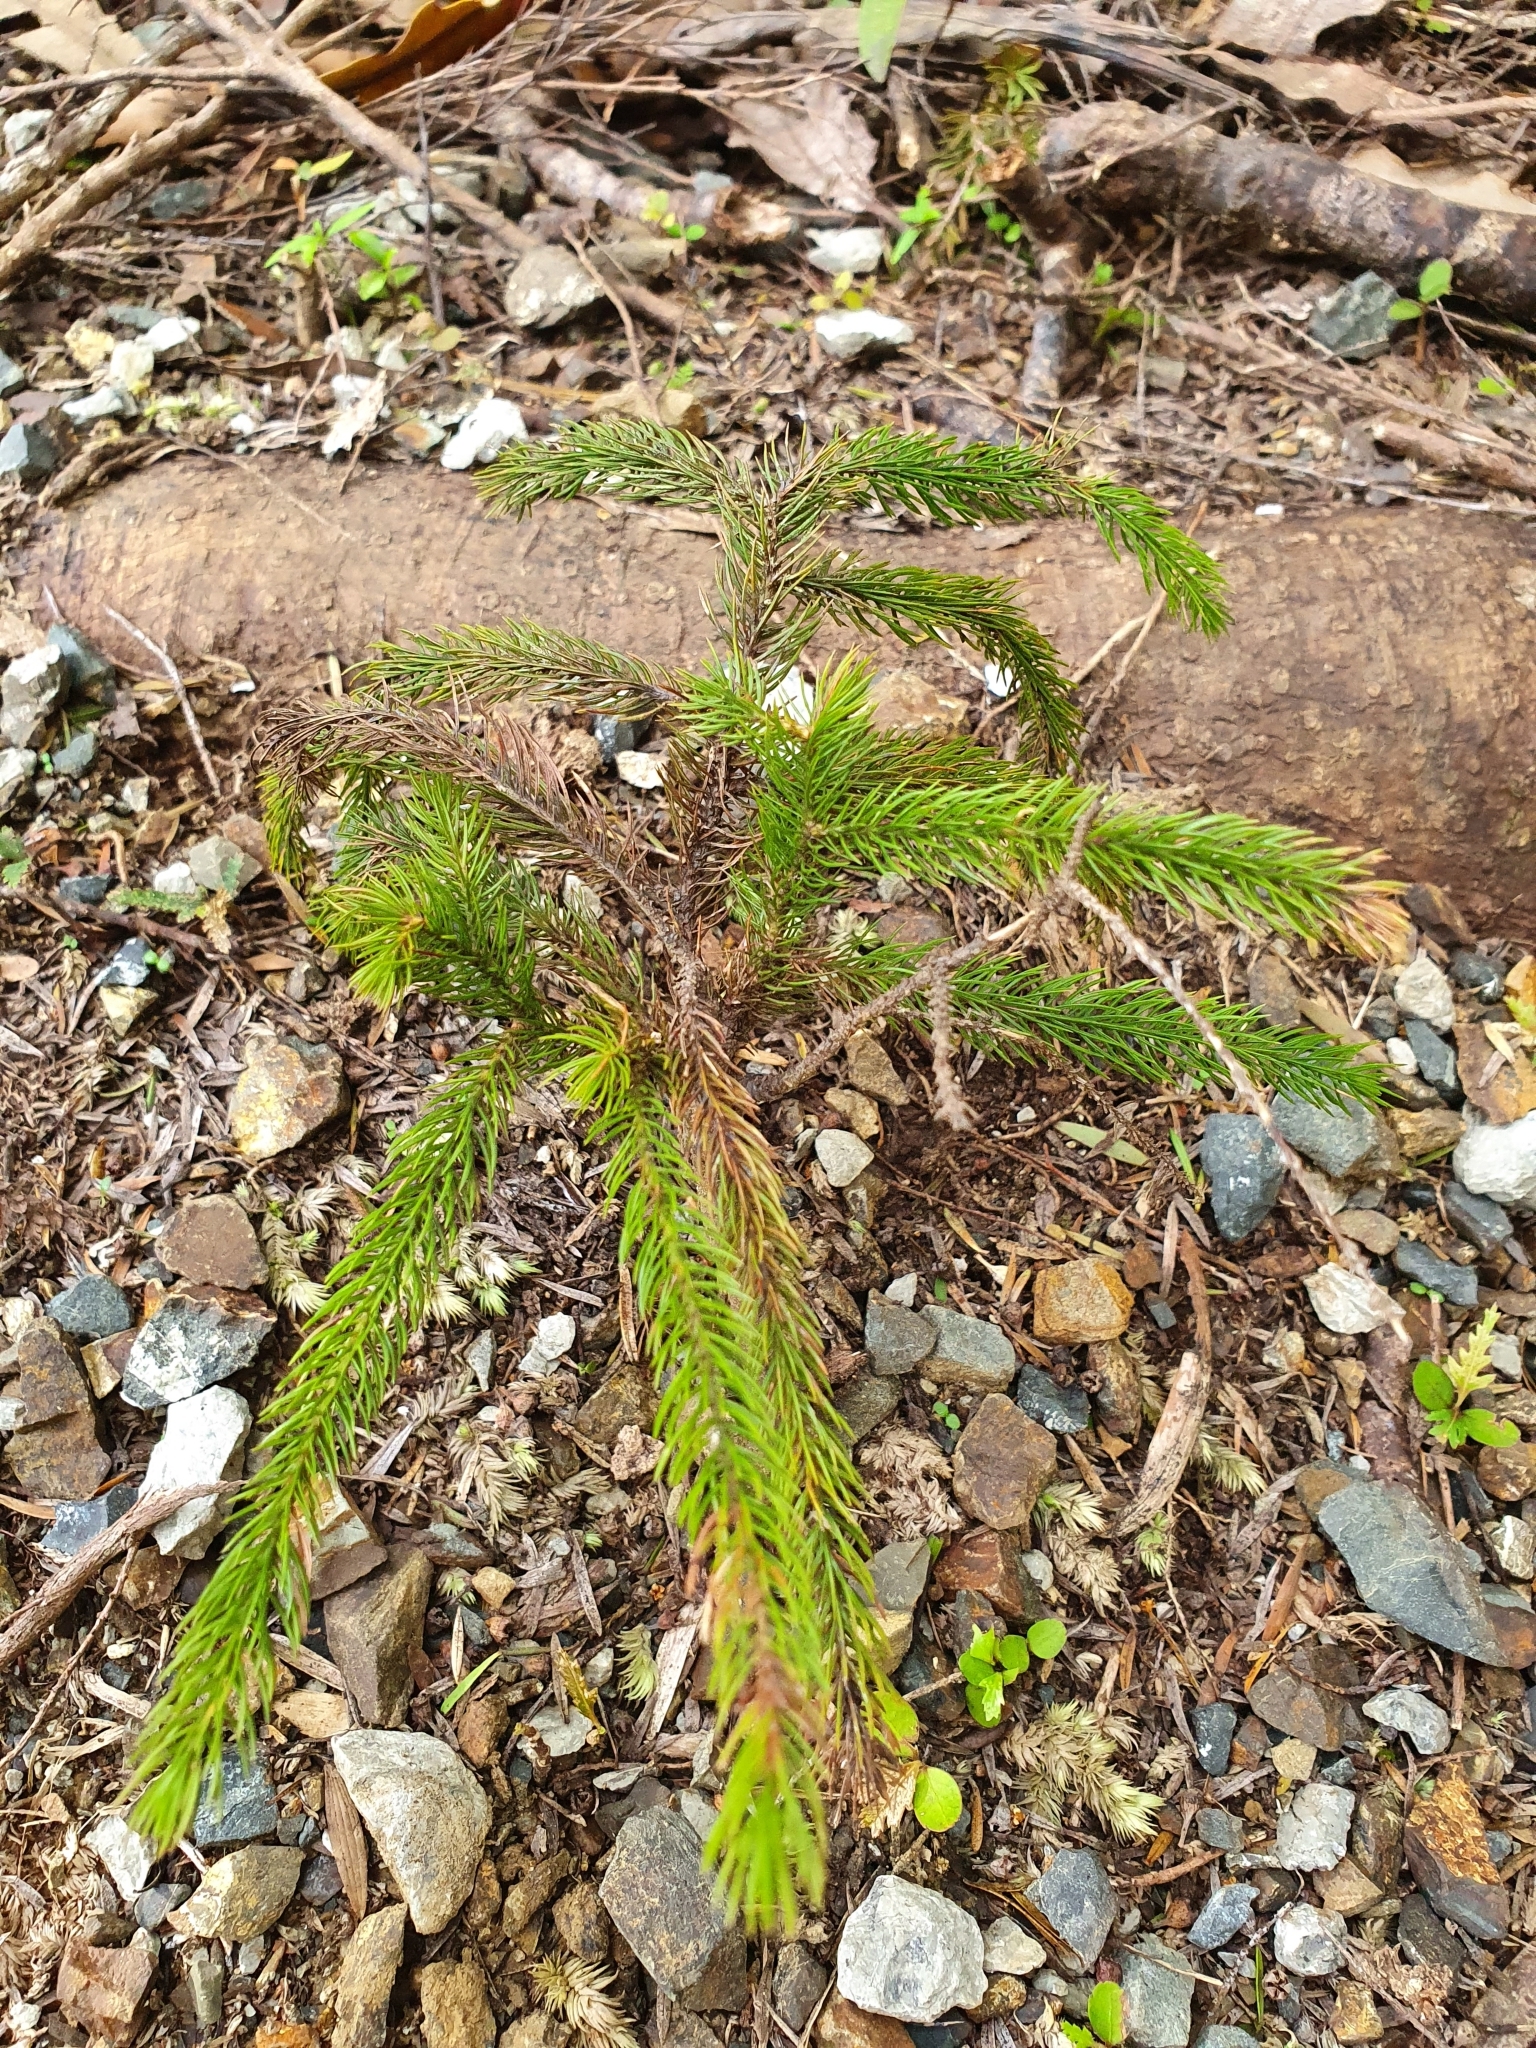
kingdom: Plantae
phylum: Tracheophyta
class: Pinopsida
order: Pinales
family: Podocarpaceae
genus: Dacrydium
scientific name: Dacrydium cupressinum
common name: Red pine
